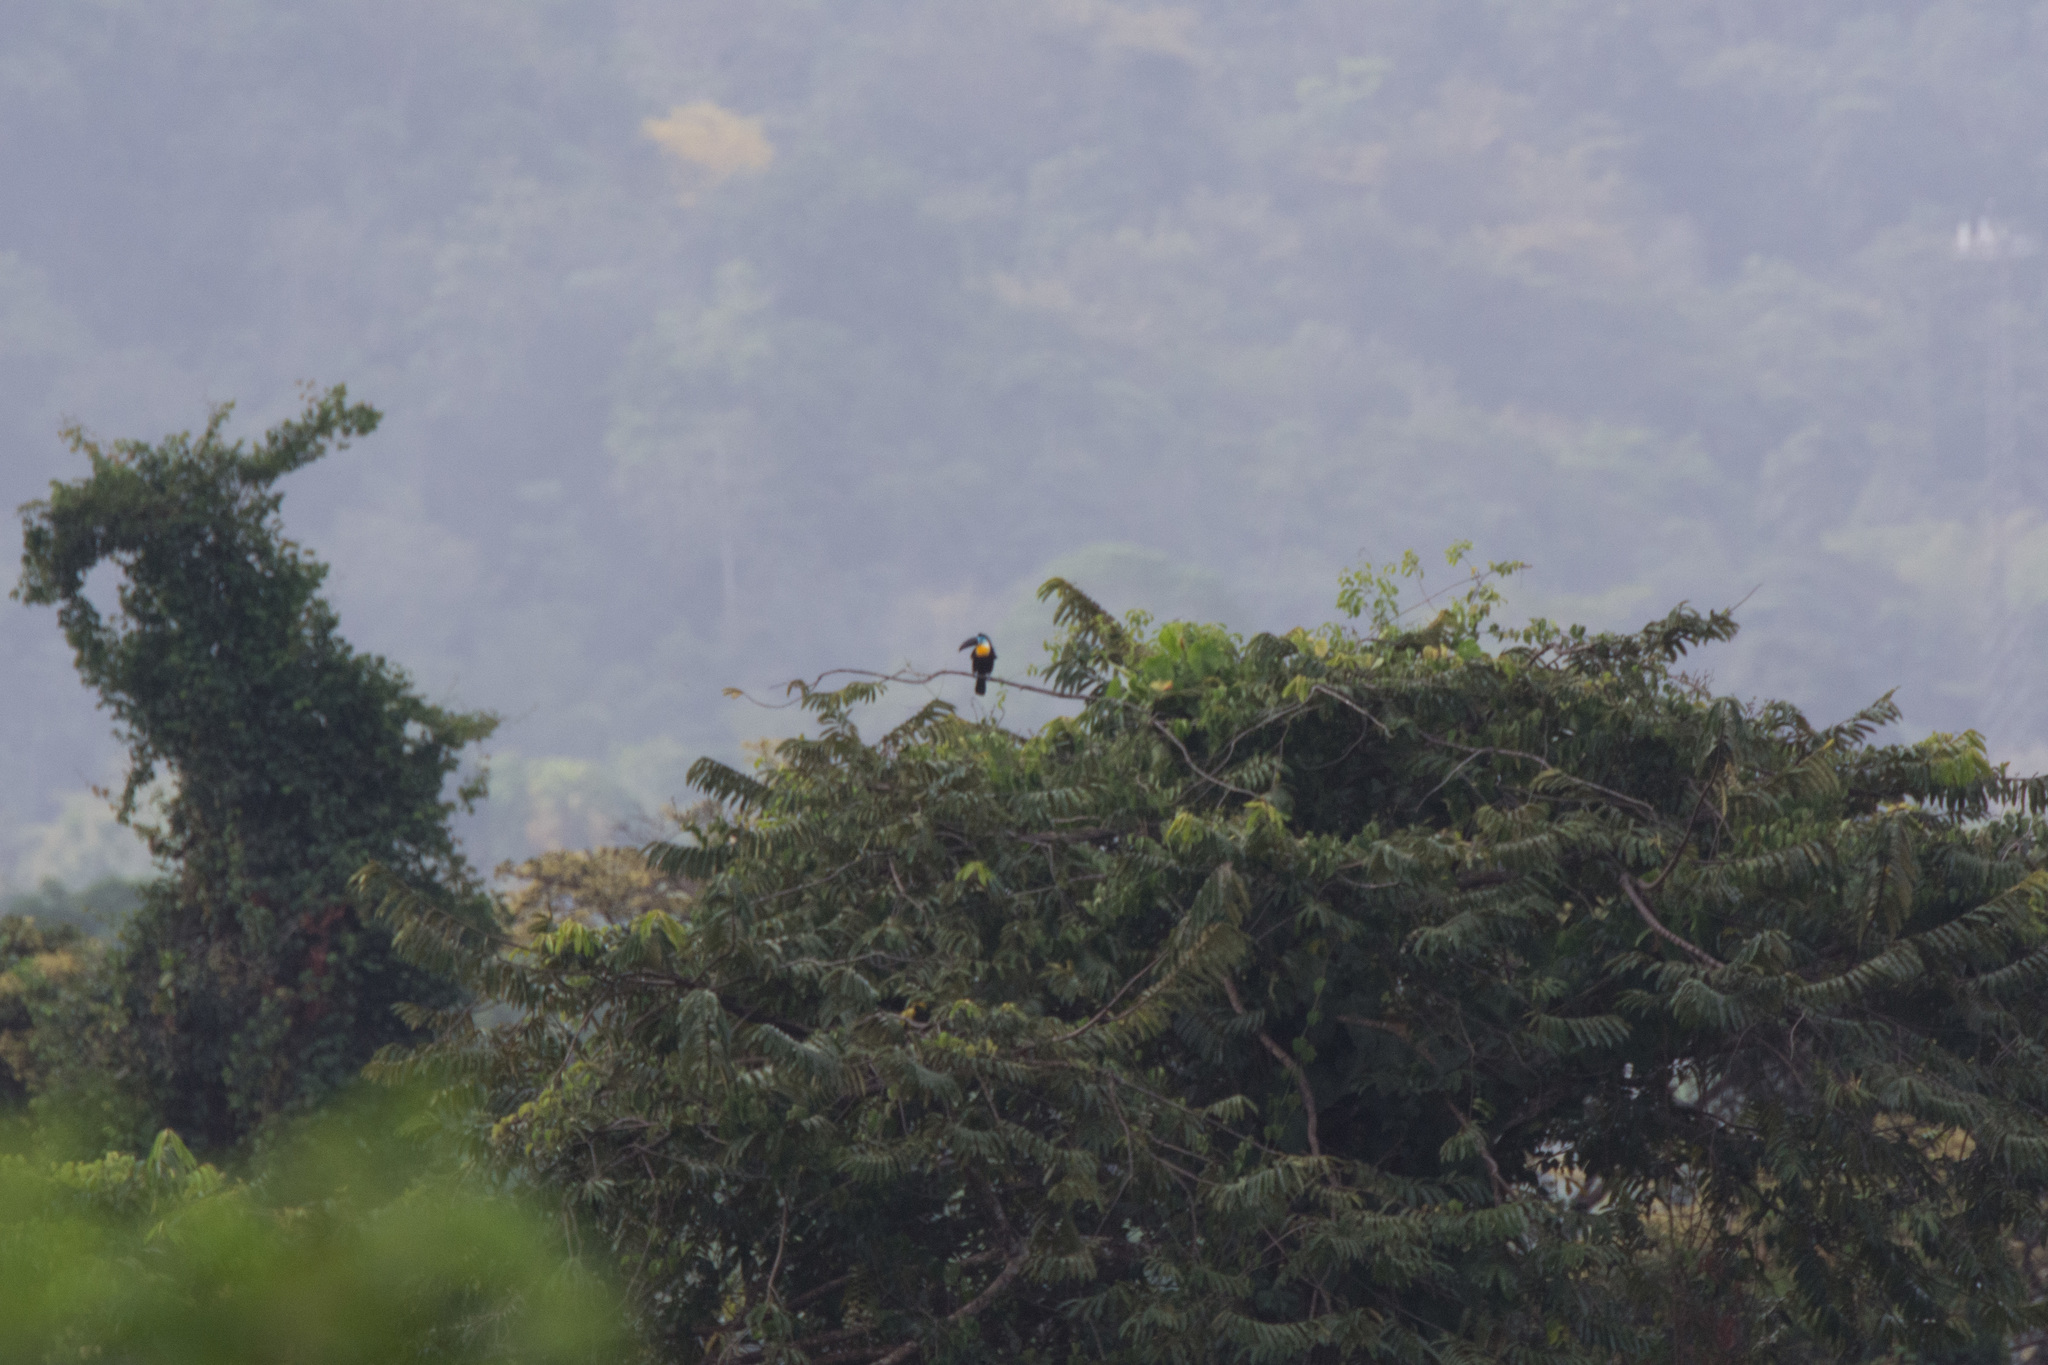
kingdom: Animalia
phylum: Chordata
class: Aves
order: Piciformes
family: Ramphastidae
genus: Ramphastos
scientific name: Ramphastos vitellinus
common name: Channel-billed toucan
